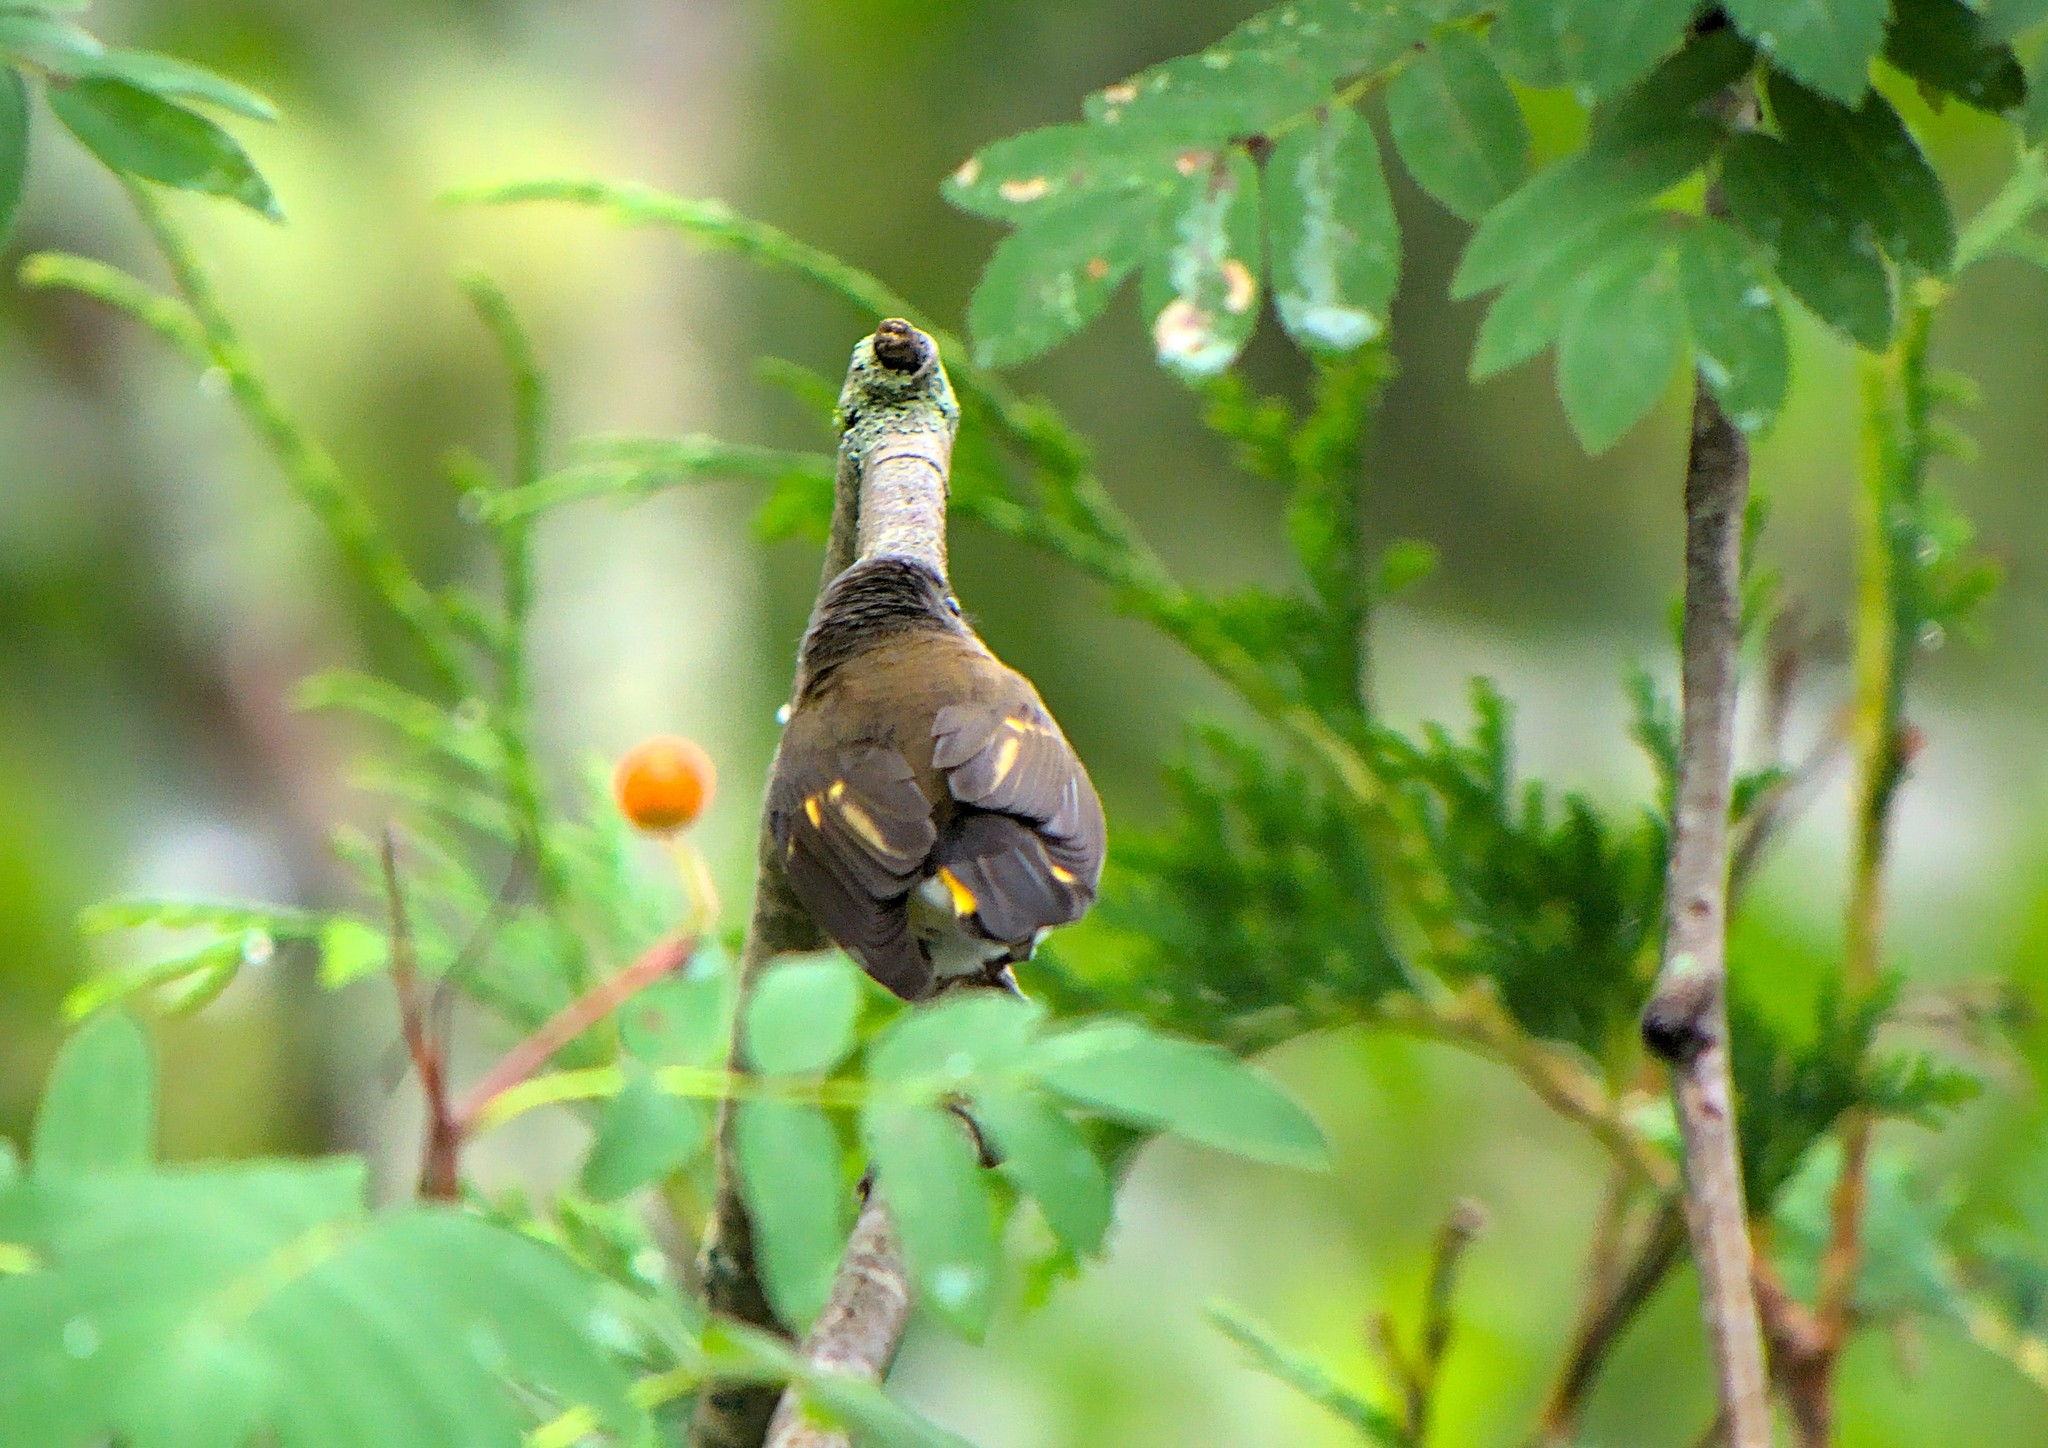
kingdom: Animalia
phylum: Chordata
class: Aves
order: Passeriformes
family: Parulidae
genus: Setophaga
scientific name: Setophaga ruticilla
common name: American redstart
